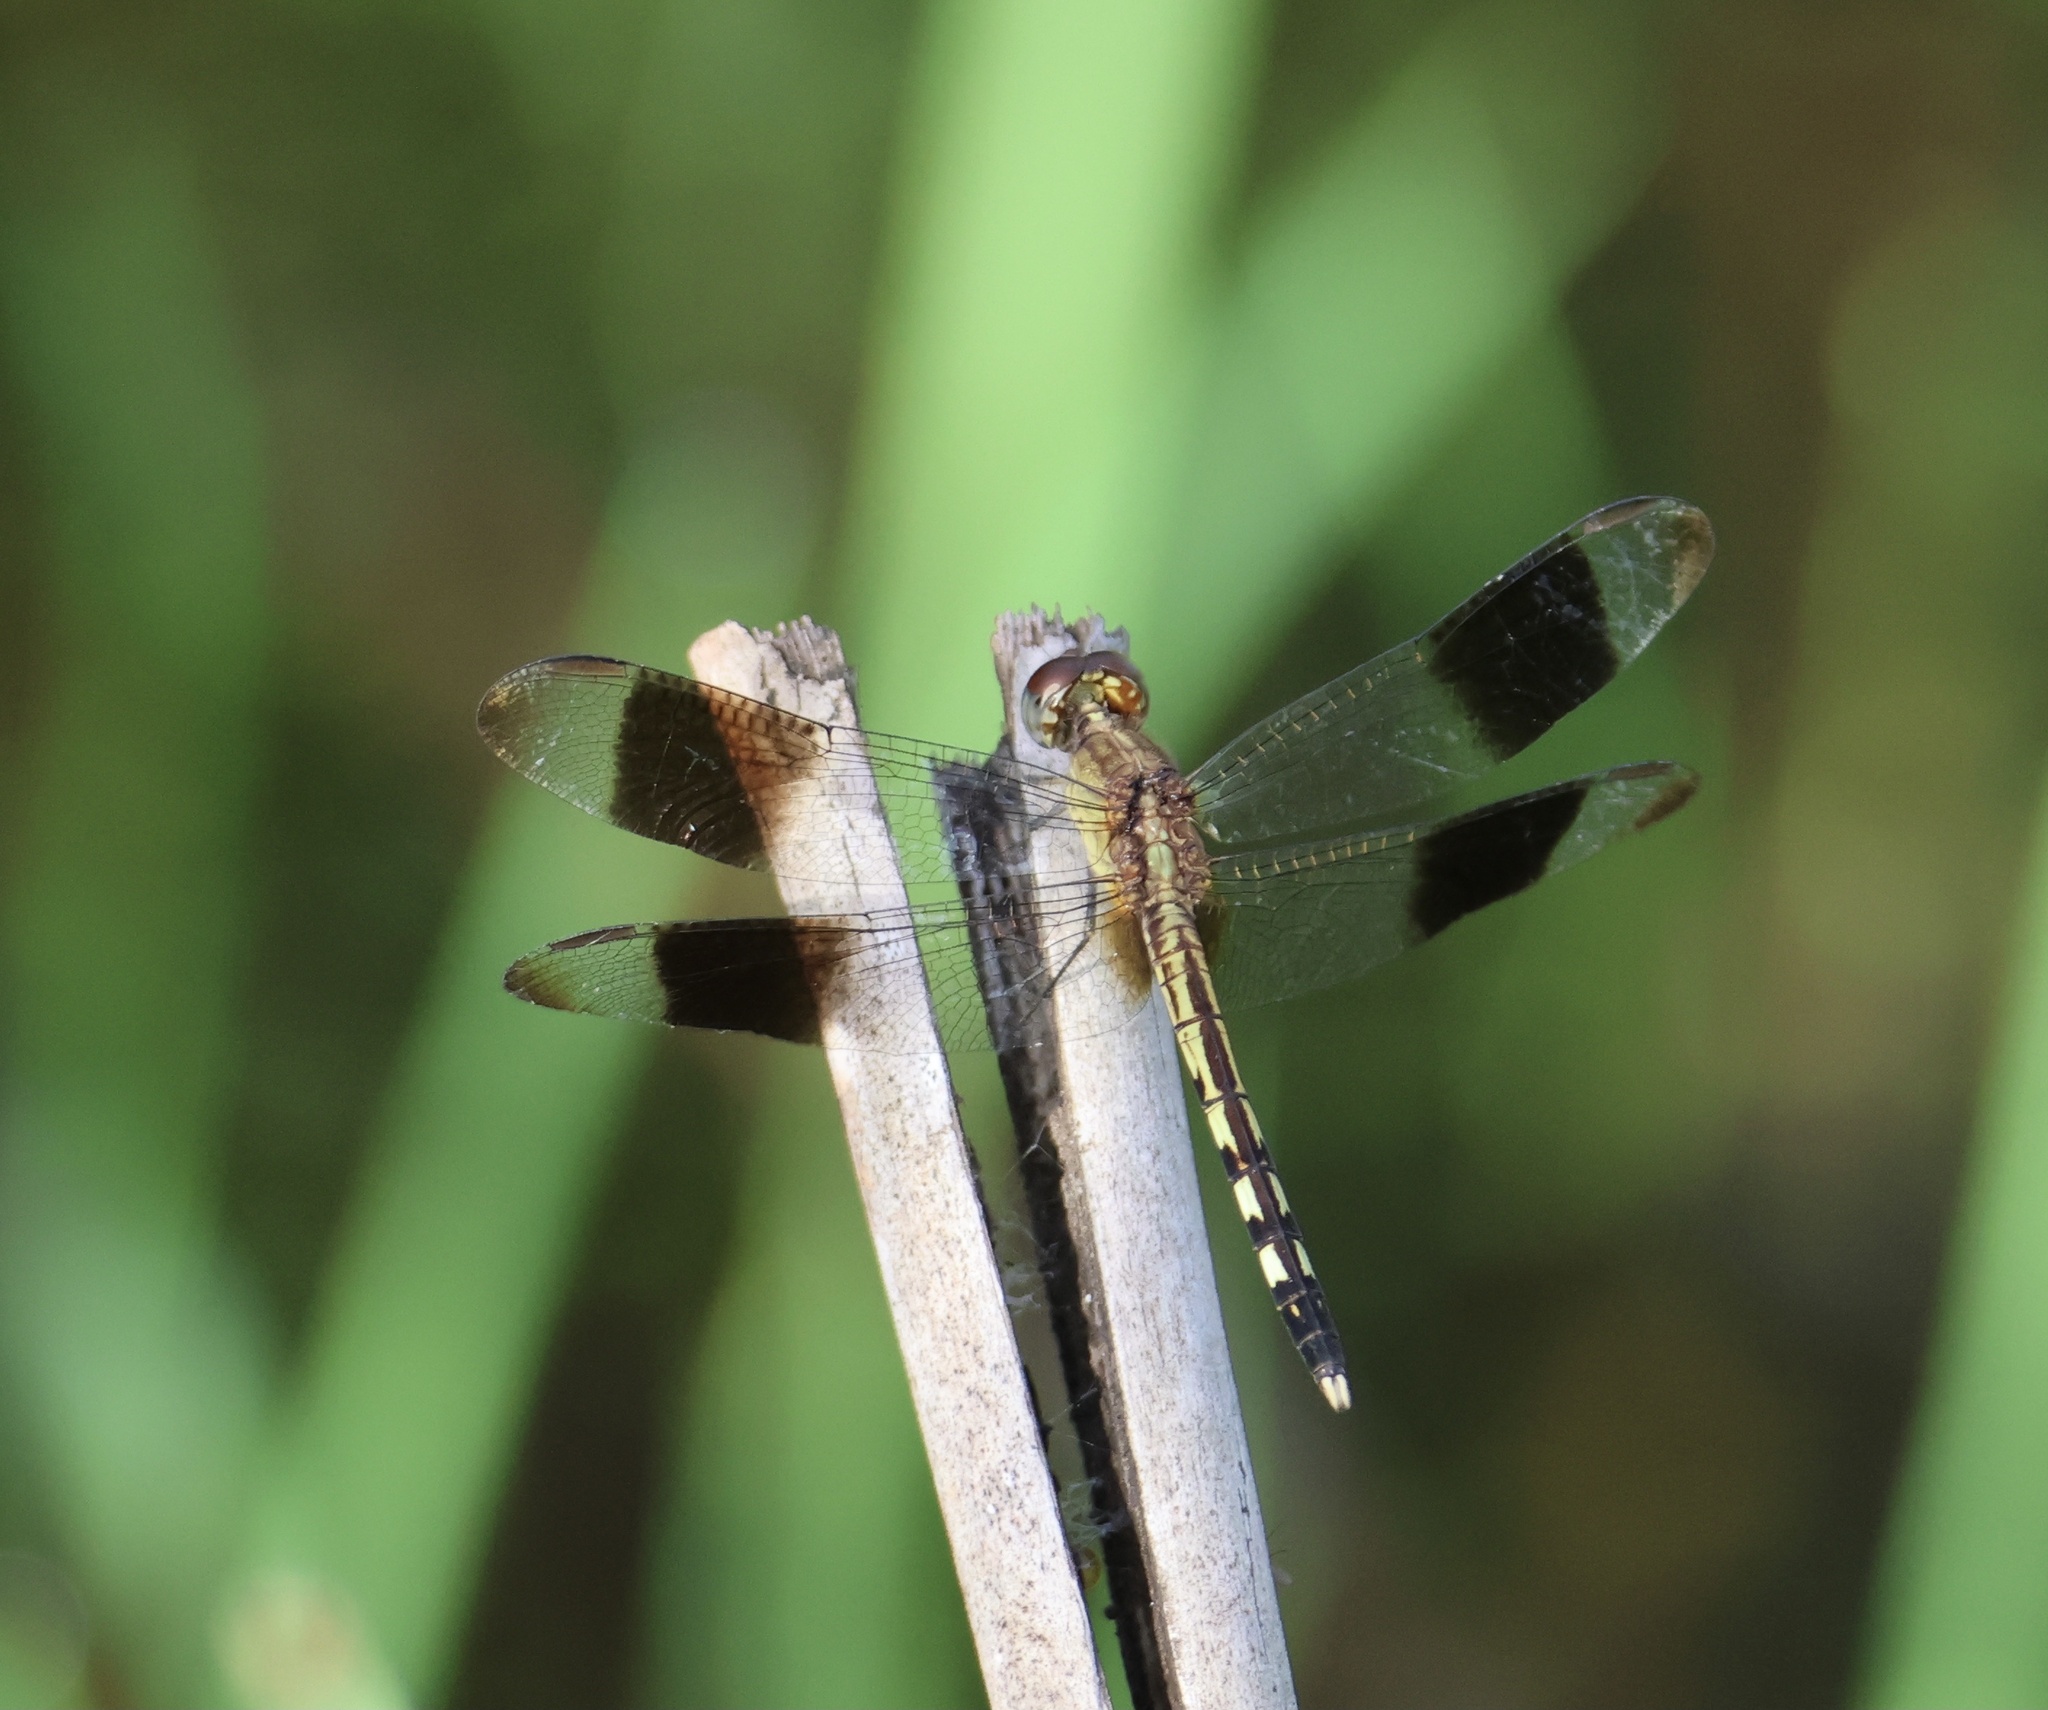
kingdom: Animalia
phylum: Arthropoda
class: Insecta
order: Odonata
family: Libellulidae
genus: Erythrodiplax
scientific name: Erythrodiplax umbrata
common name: Band-winged dragonlet
